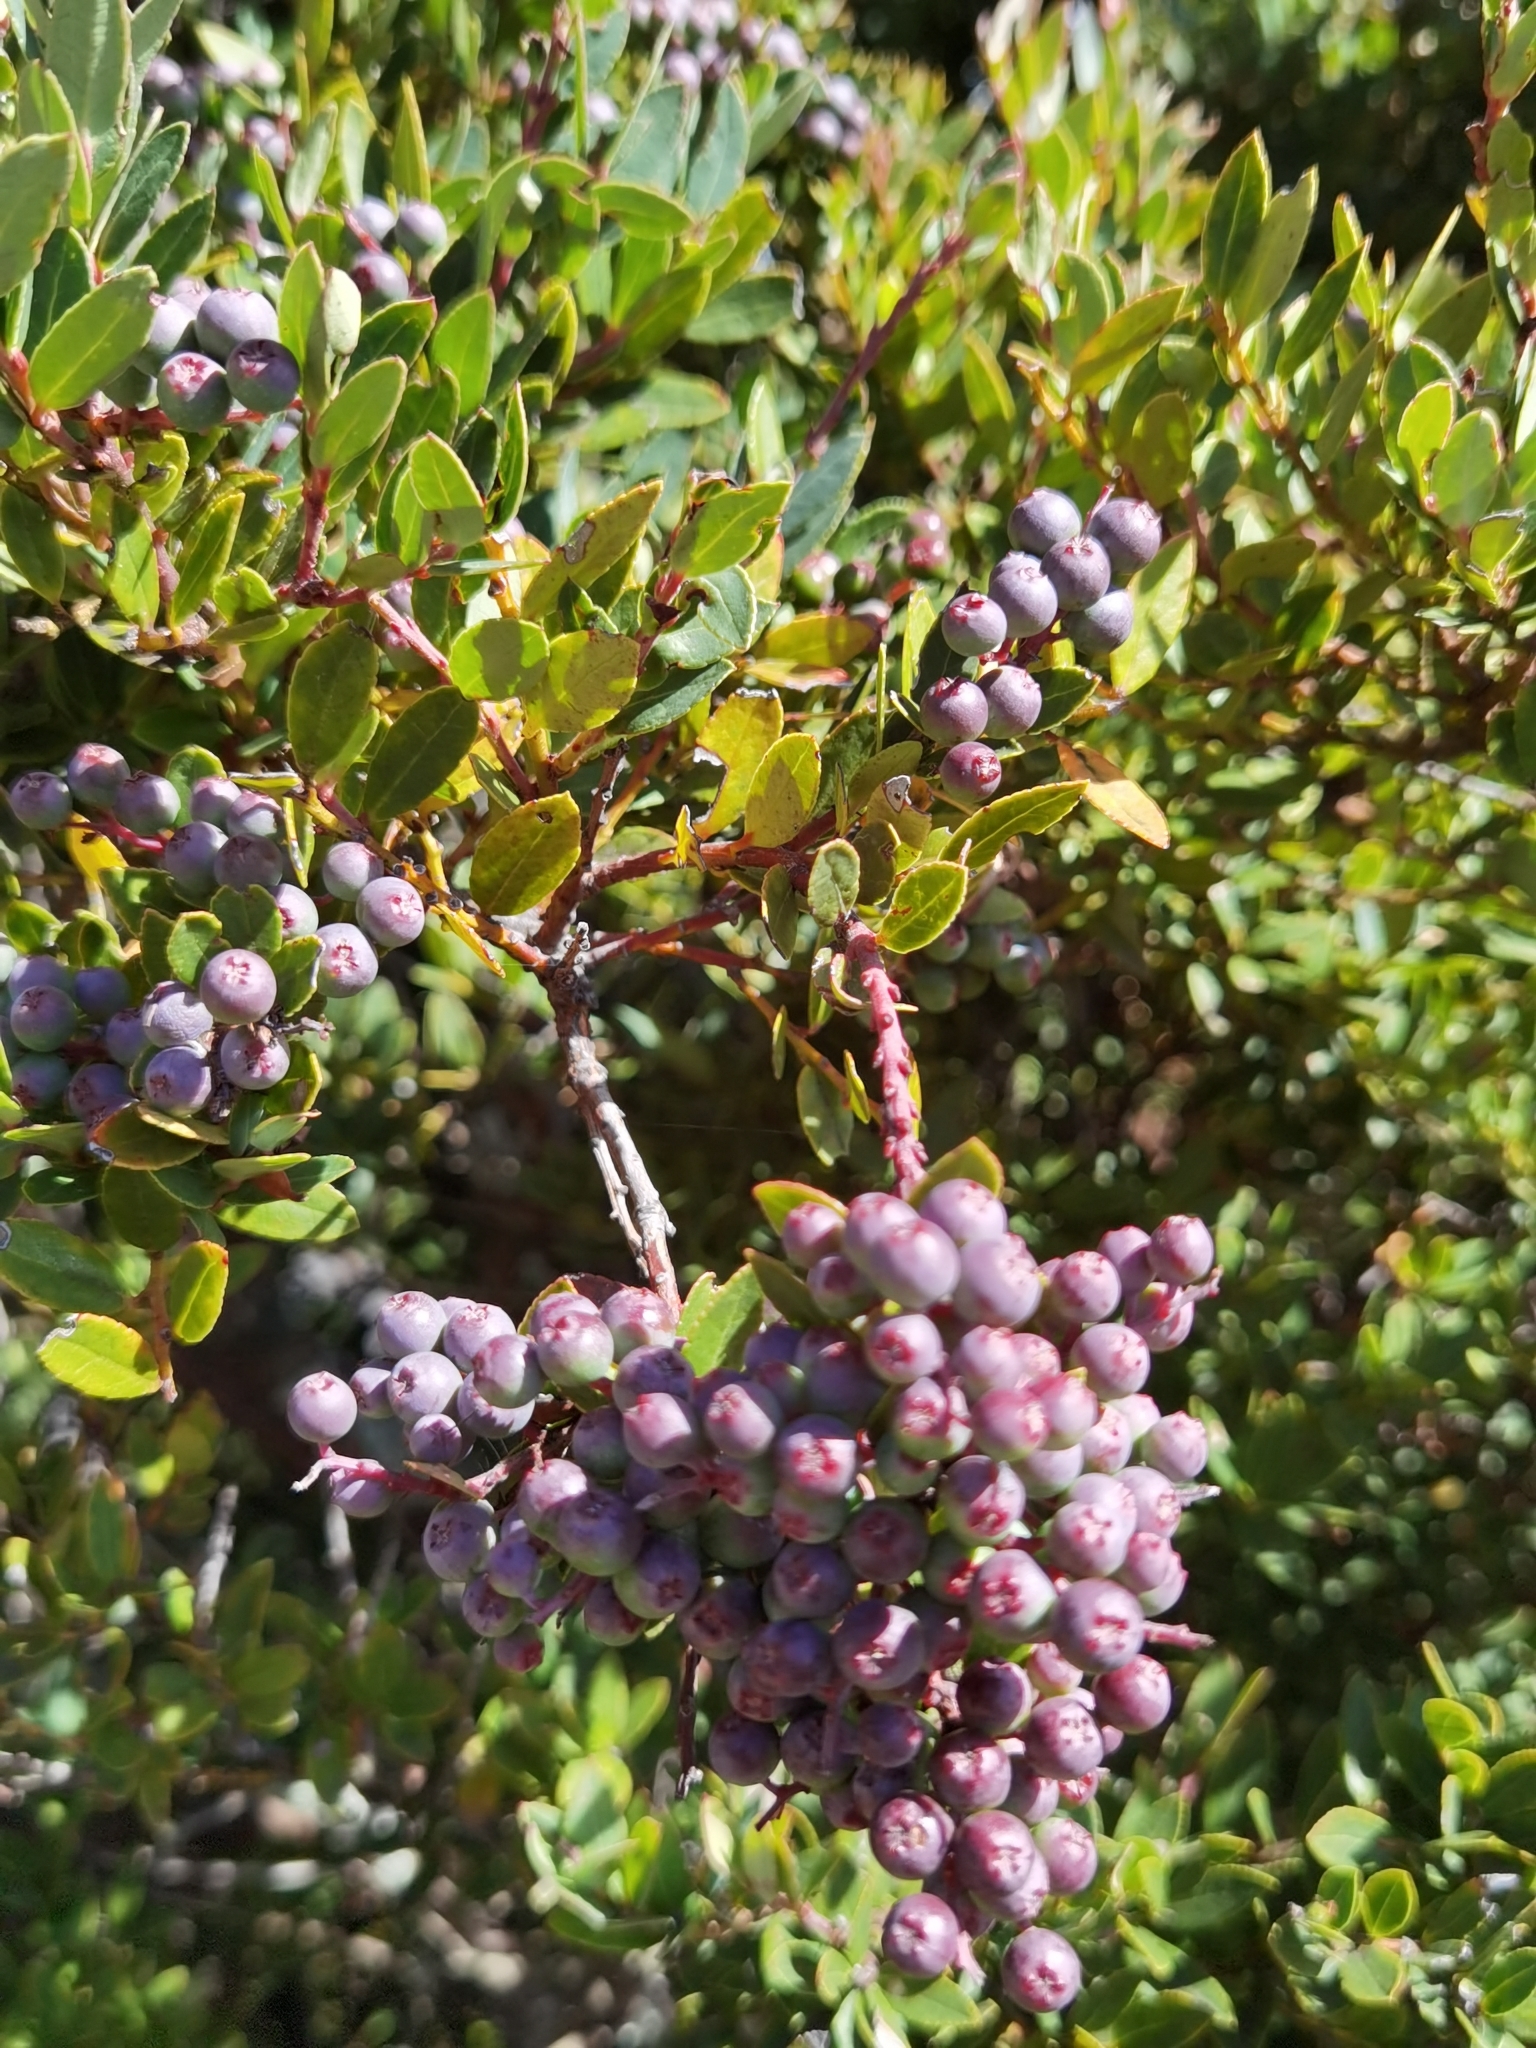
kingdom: Plantae
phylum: Tracheophyta
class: Magnoliopsida
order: Ericales
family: Ericaceae
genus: Vaccinium
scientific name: Vaccinium consanguineum
